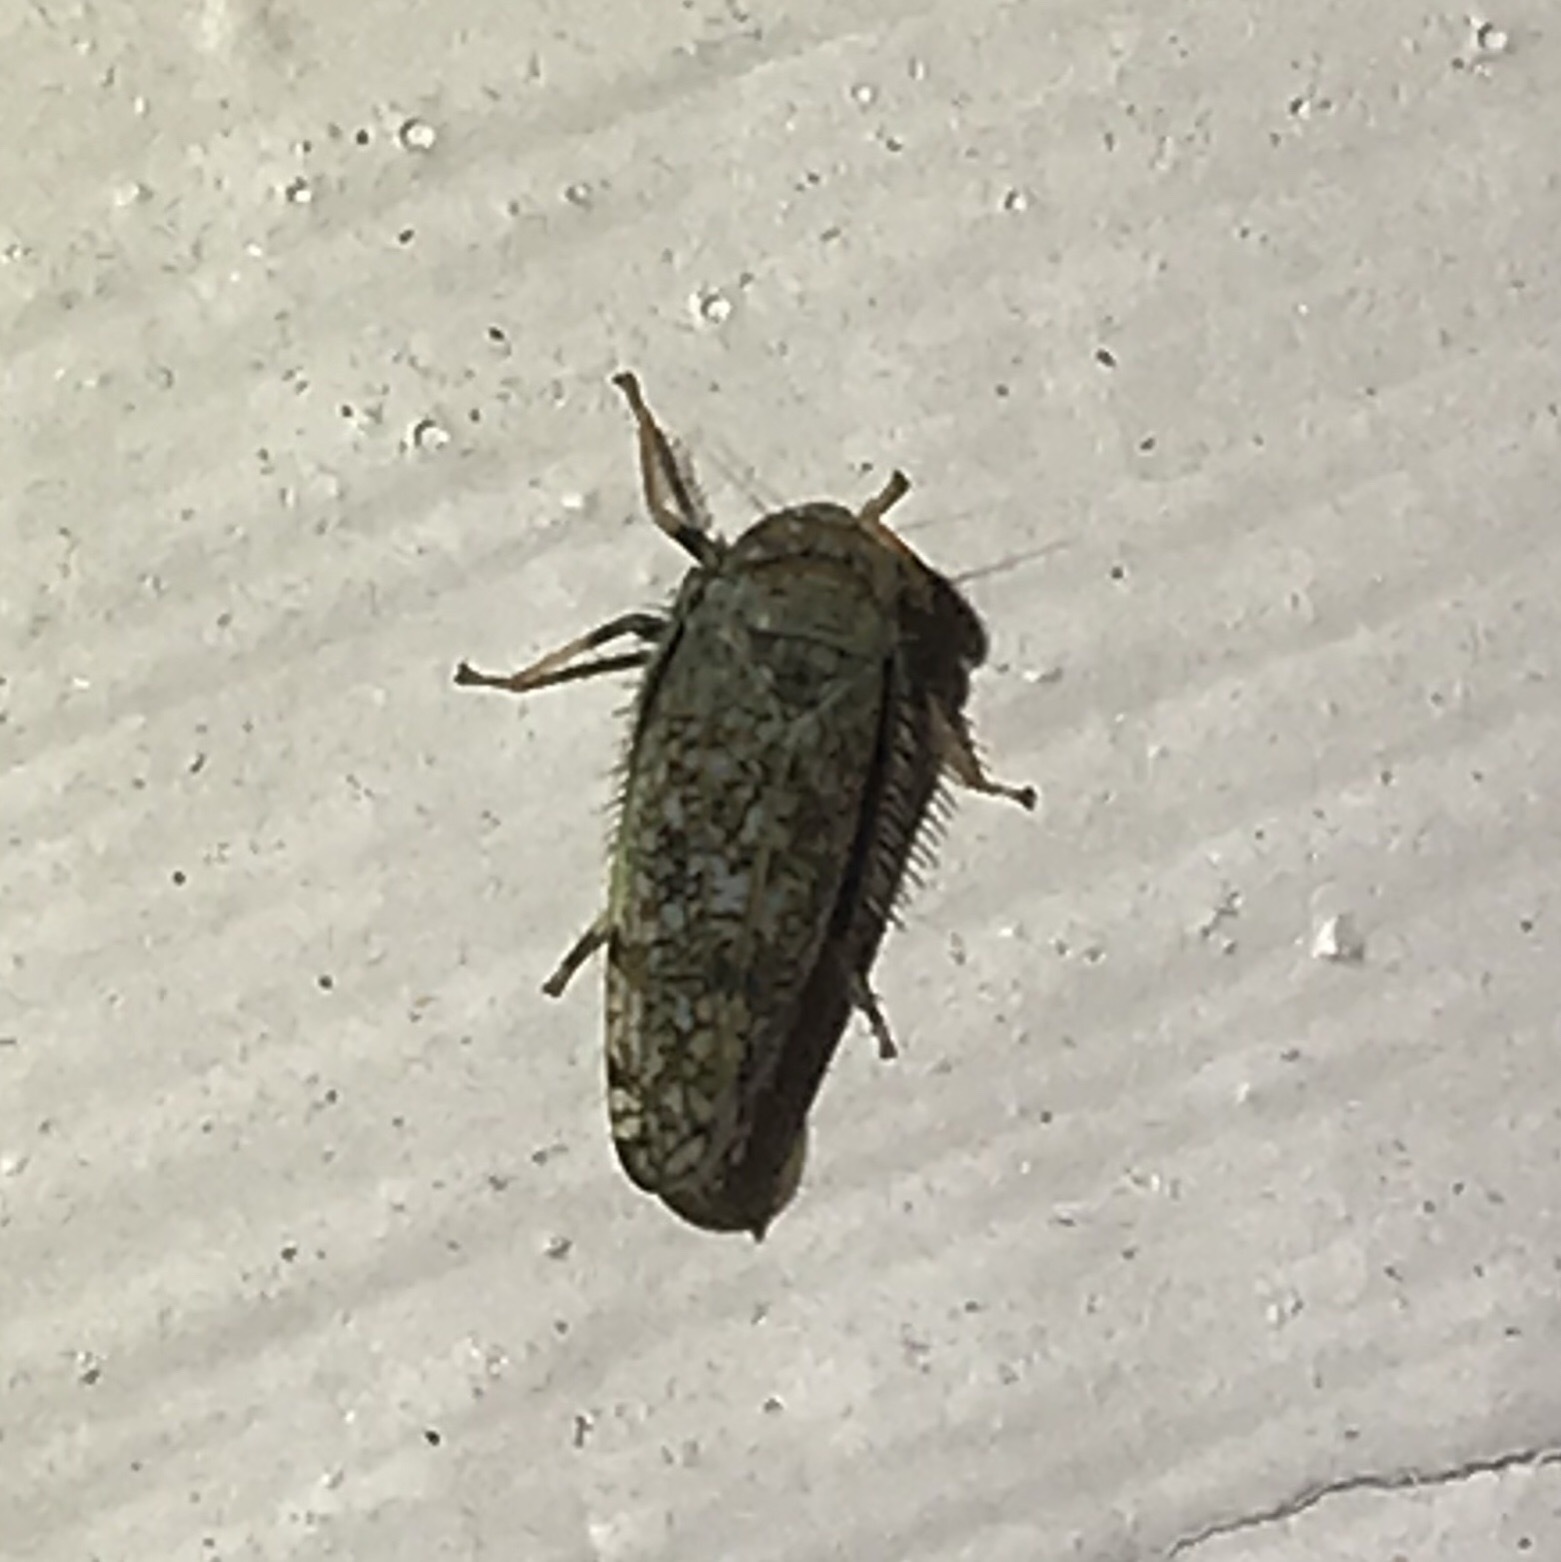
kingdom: Animalia
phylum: Arthropoda
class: Insecta
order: Hemiptera
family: Cicadellidae
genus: Orientus
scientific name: Orientus ishidae
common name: Japanese leafhopper
